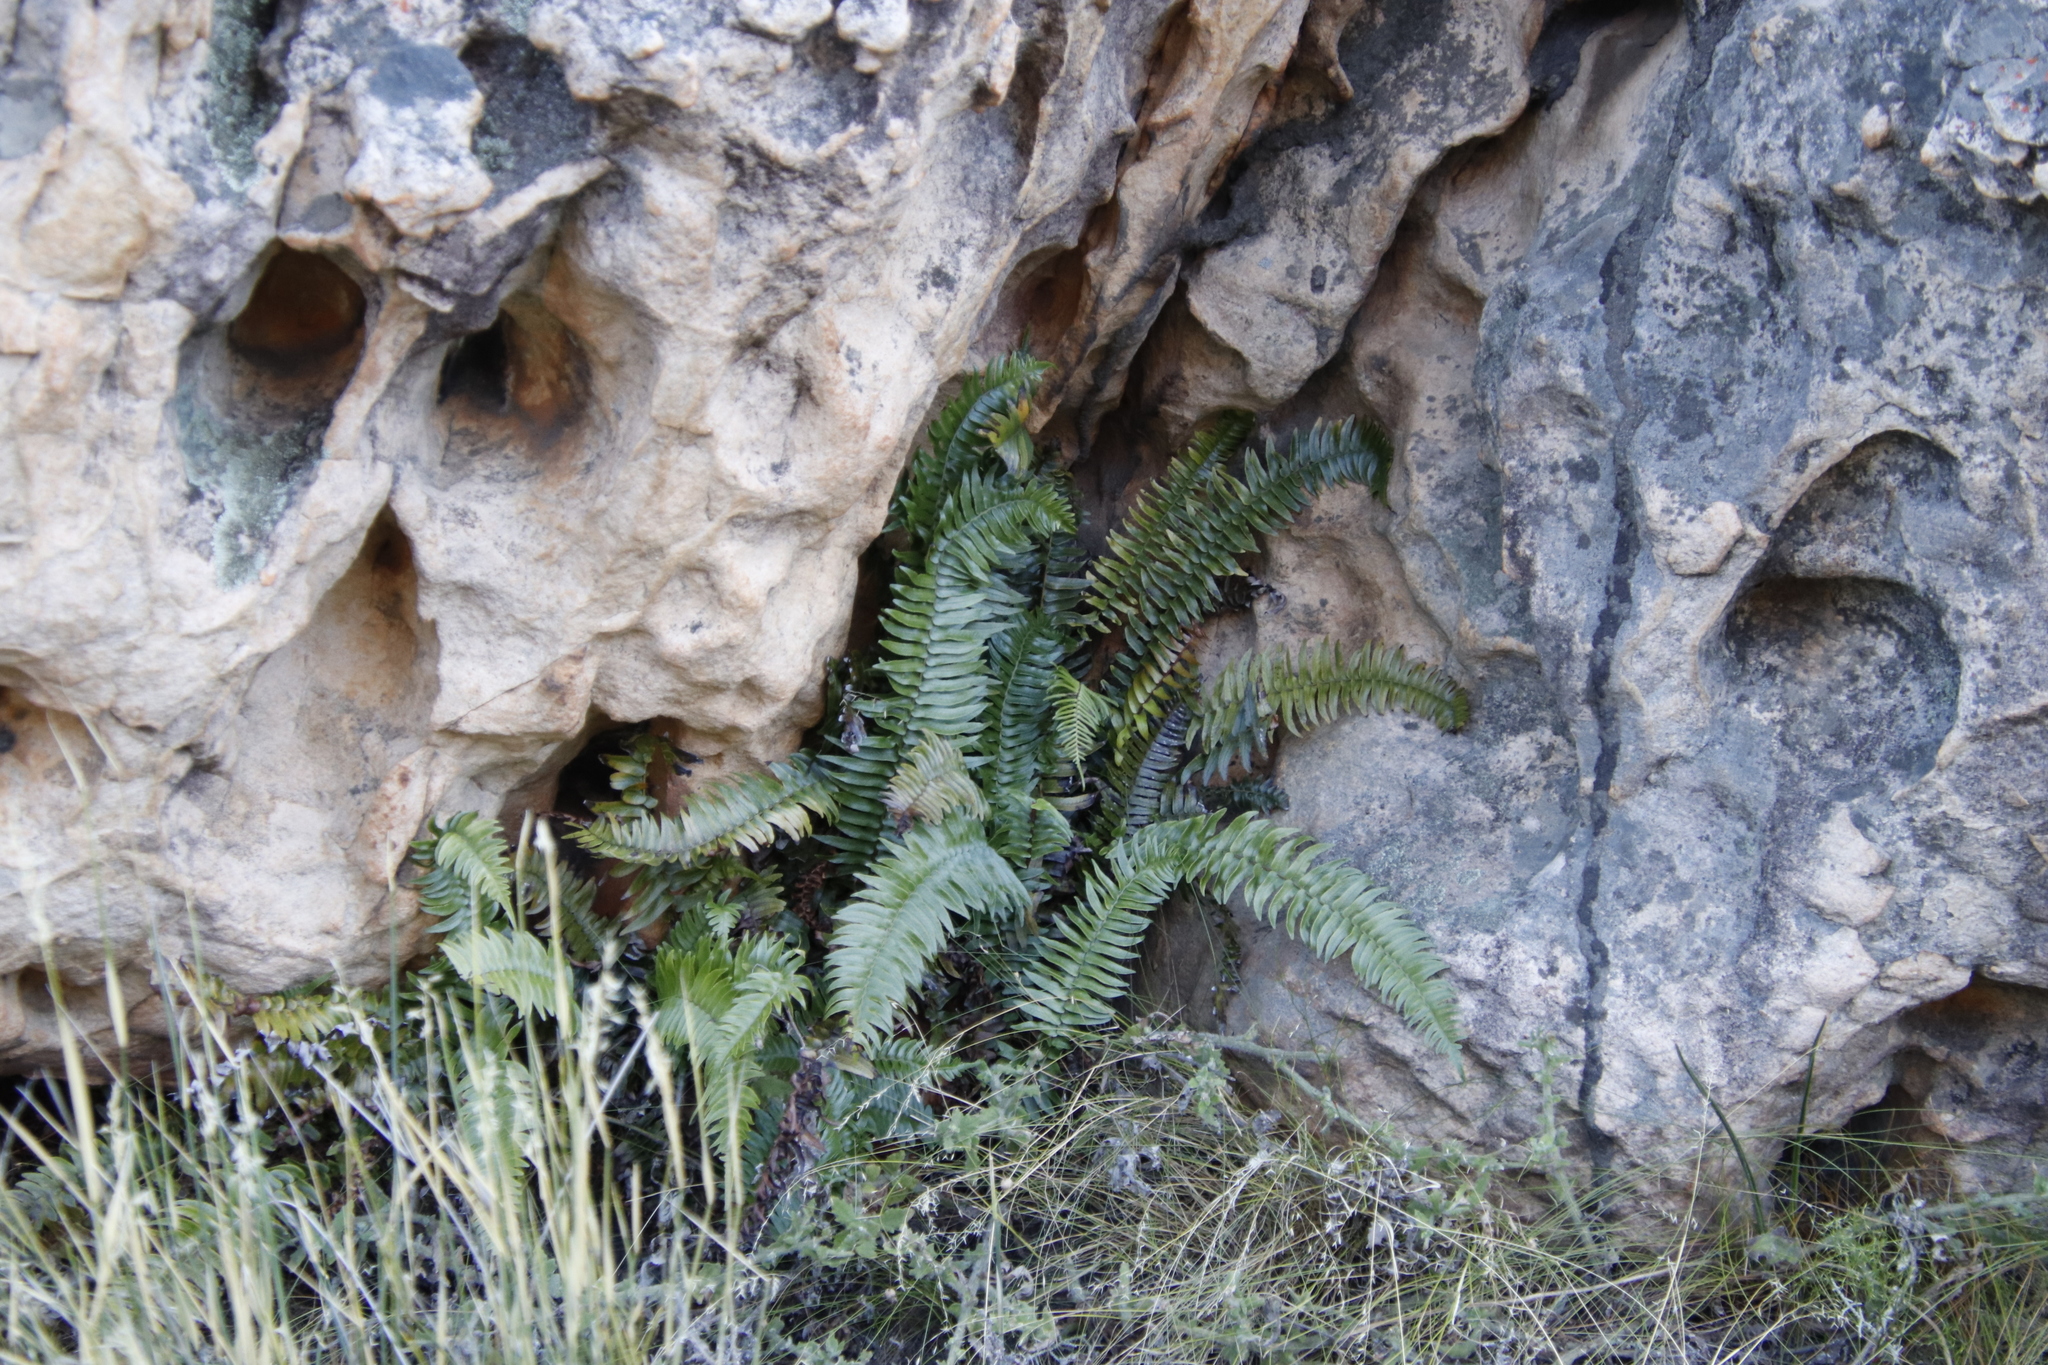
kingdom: Plantae
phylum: Tracheophyta
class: Polypodiopsida
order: Polypodiales
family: Blechnaceae
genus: Blechnum
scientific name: Blechnum punctulatum
